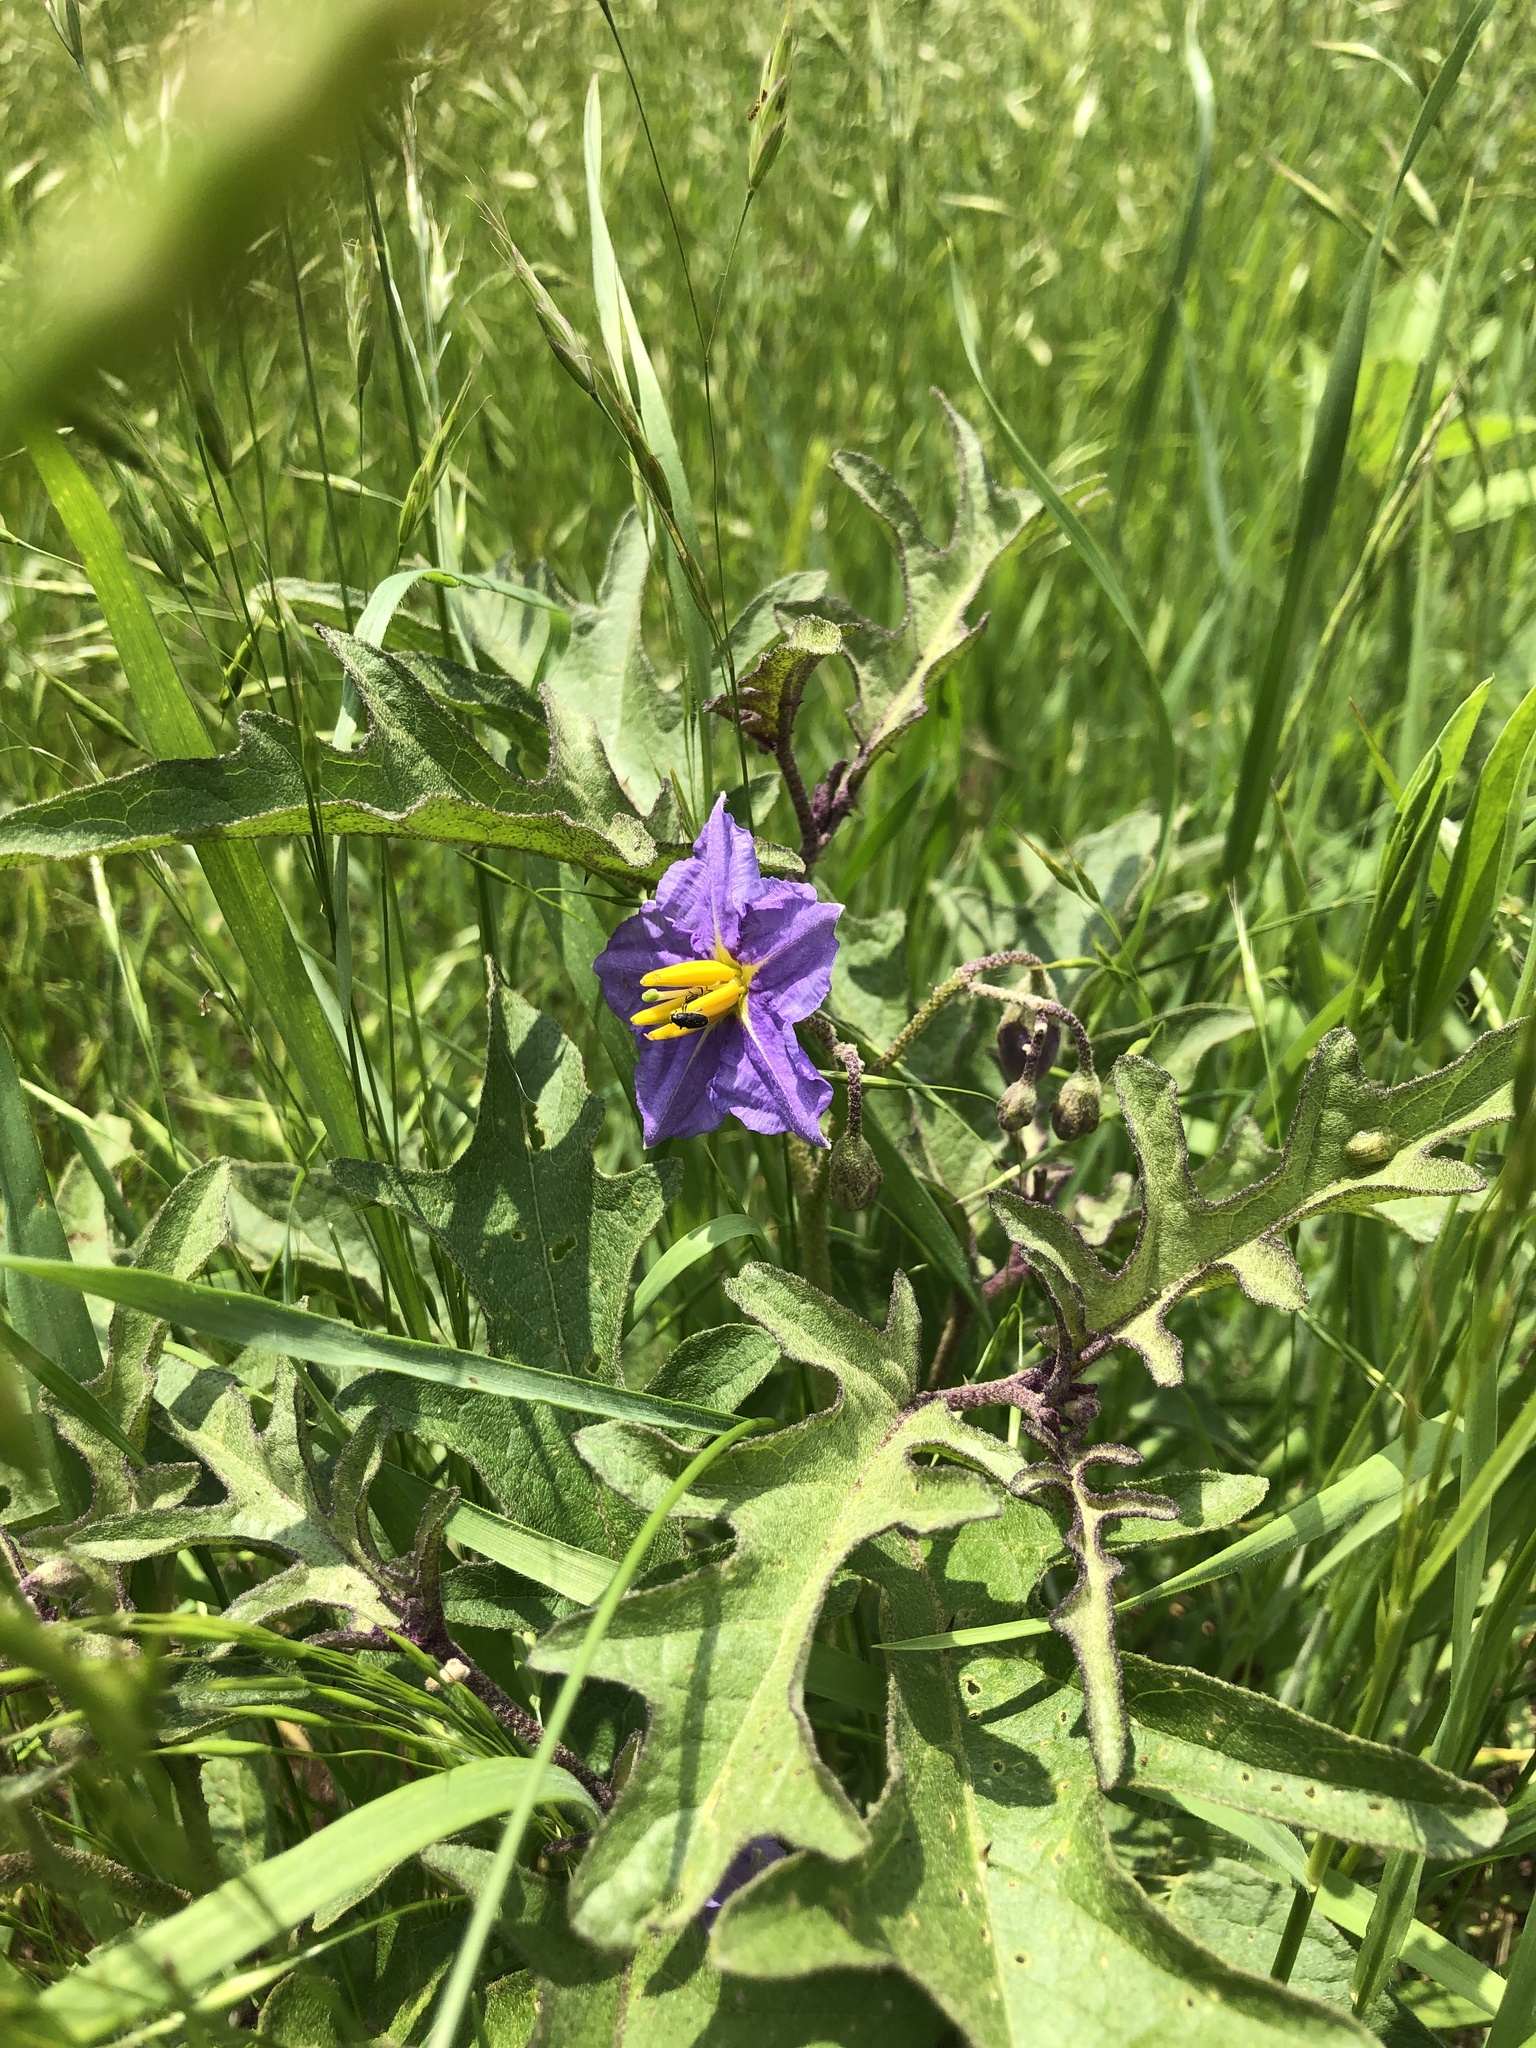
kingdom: Plantae
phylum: Tracheophyta
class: Magnoliopsida
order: Solanales
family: Solanaceae
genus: Solanum
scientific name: Solanum dimidiatum
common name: Carolina horse-nettle
